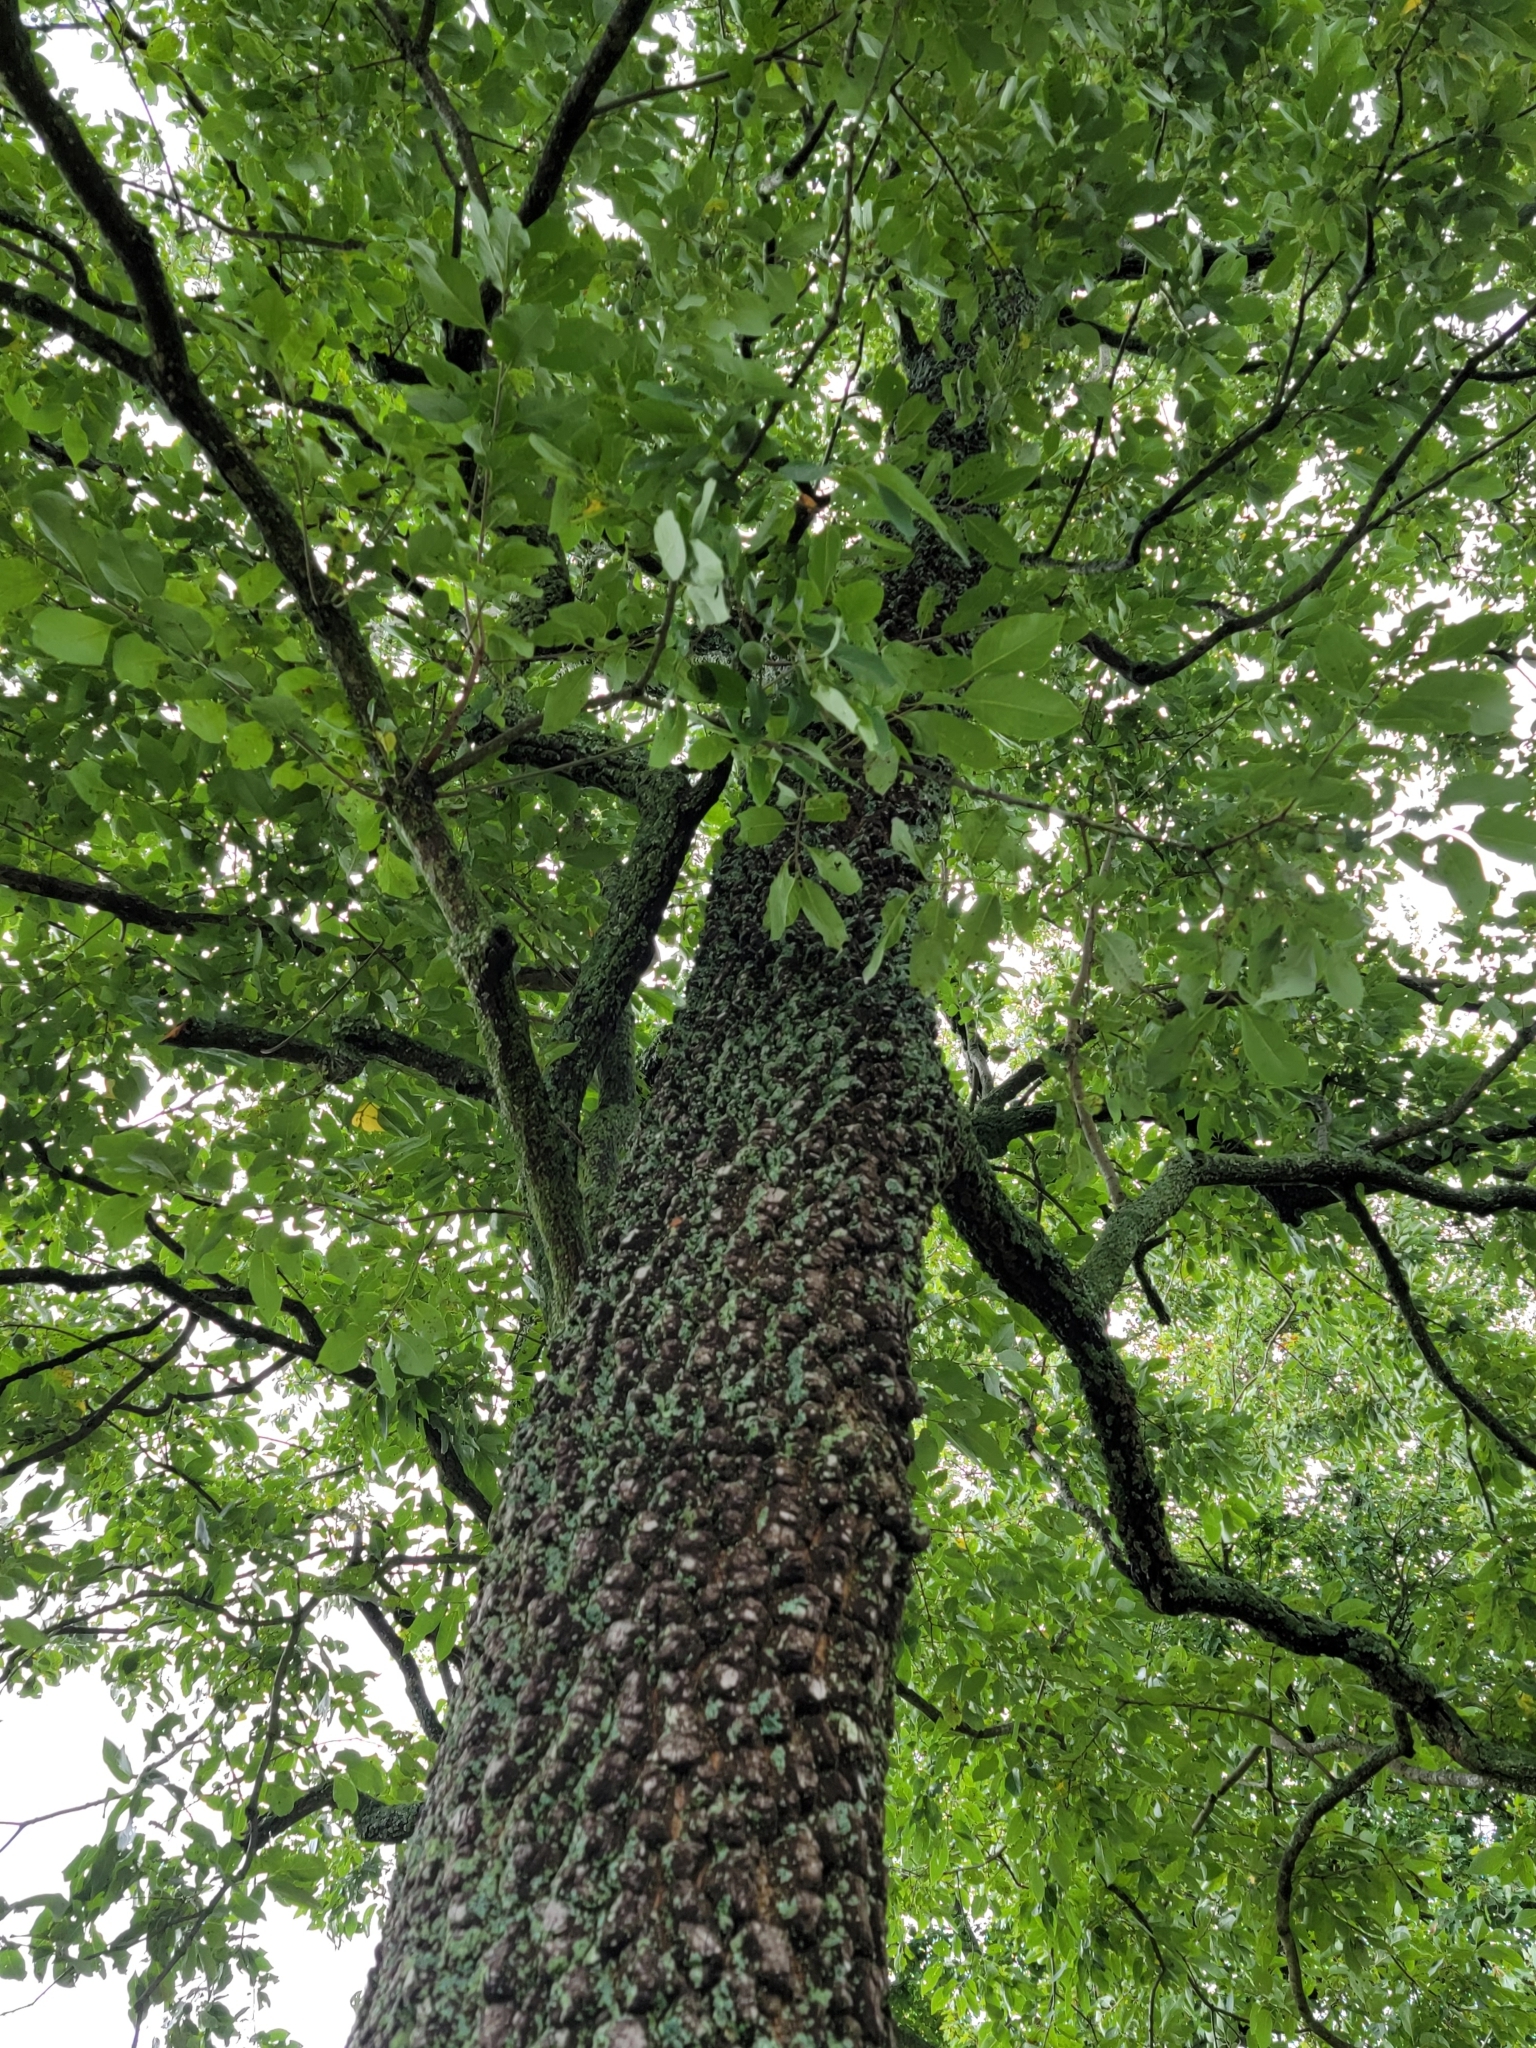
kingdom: Plantae
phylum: Tracheophyta
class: Magnoliopsida
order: Ericales
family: Ebenaceae
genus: Diospyros
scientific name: Diospyros virginiana
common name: Persimmon
